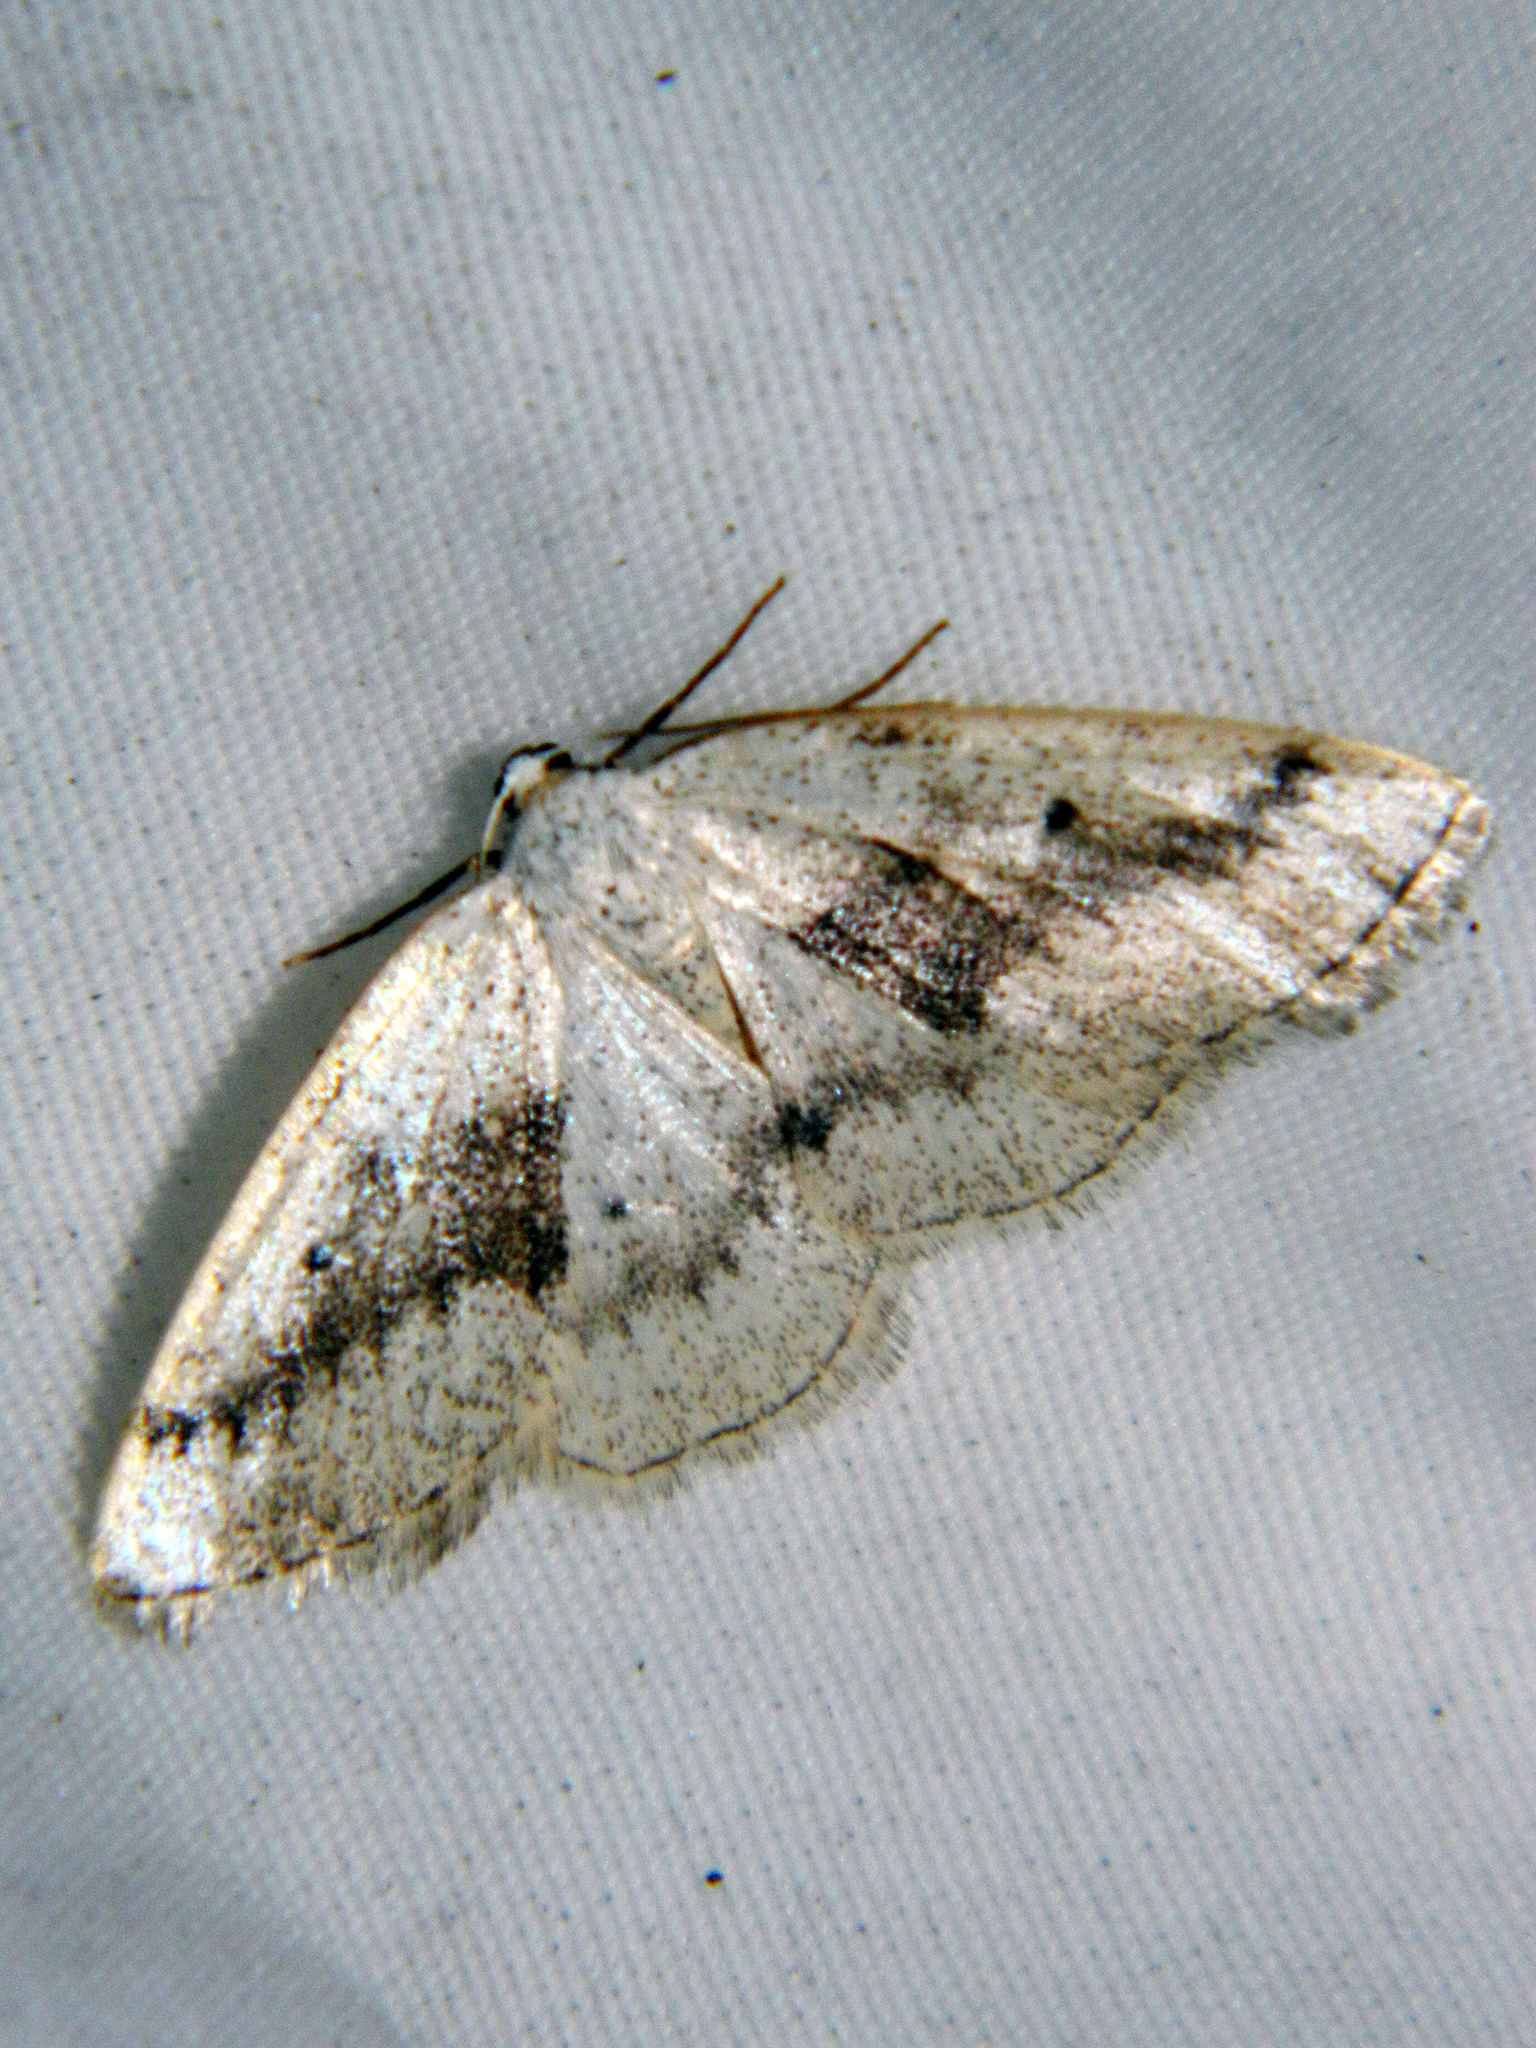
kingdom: Animalia
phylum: Arthropoda
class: Insecta
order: Lepidoptera
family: Geometridae
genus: Lomographa
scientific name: Lomographa glomeraria
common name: Gray spring moth
